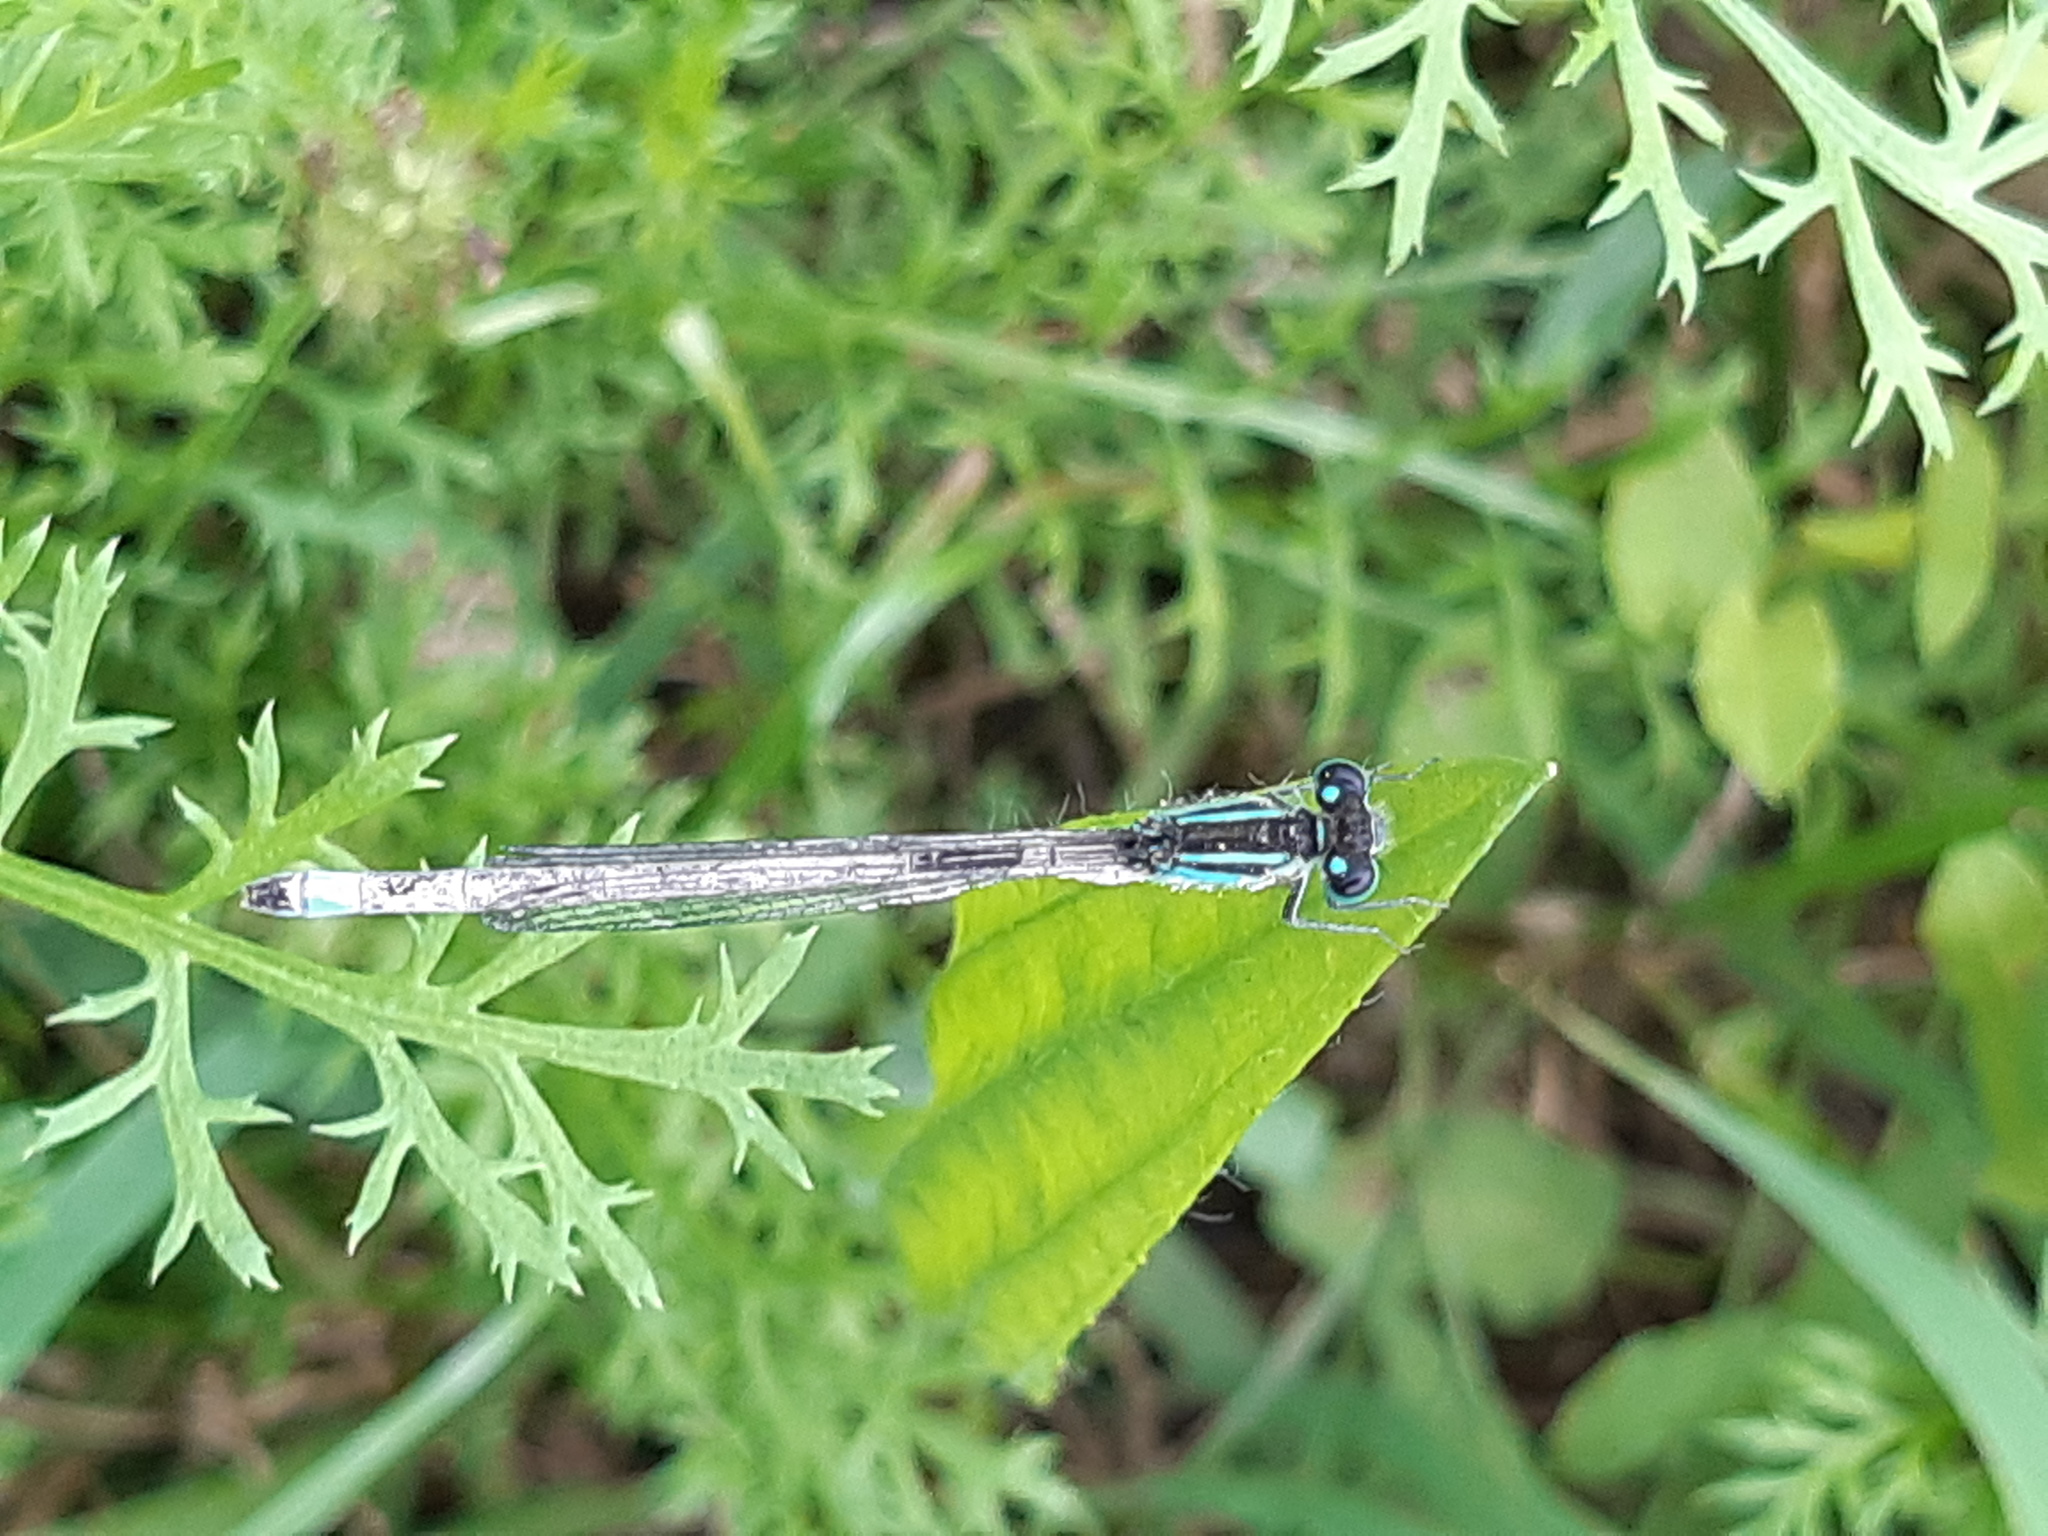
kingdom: Animalia
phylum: Arthropoda
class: Insecta
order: Odonata
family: Coenagrionidae
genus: Ischnura
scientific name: Ischnura elegans
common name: Blue-tailed damselfly
